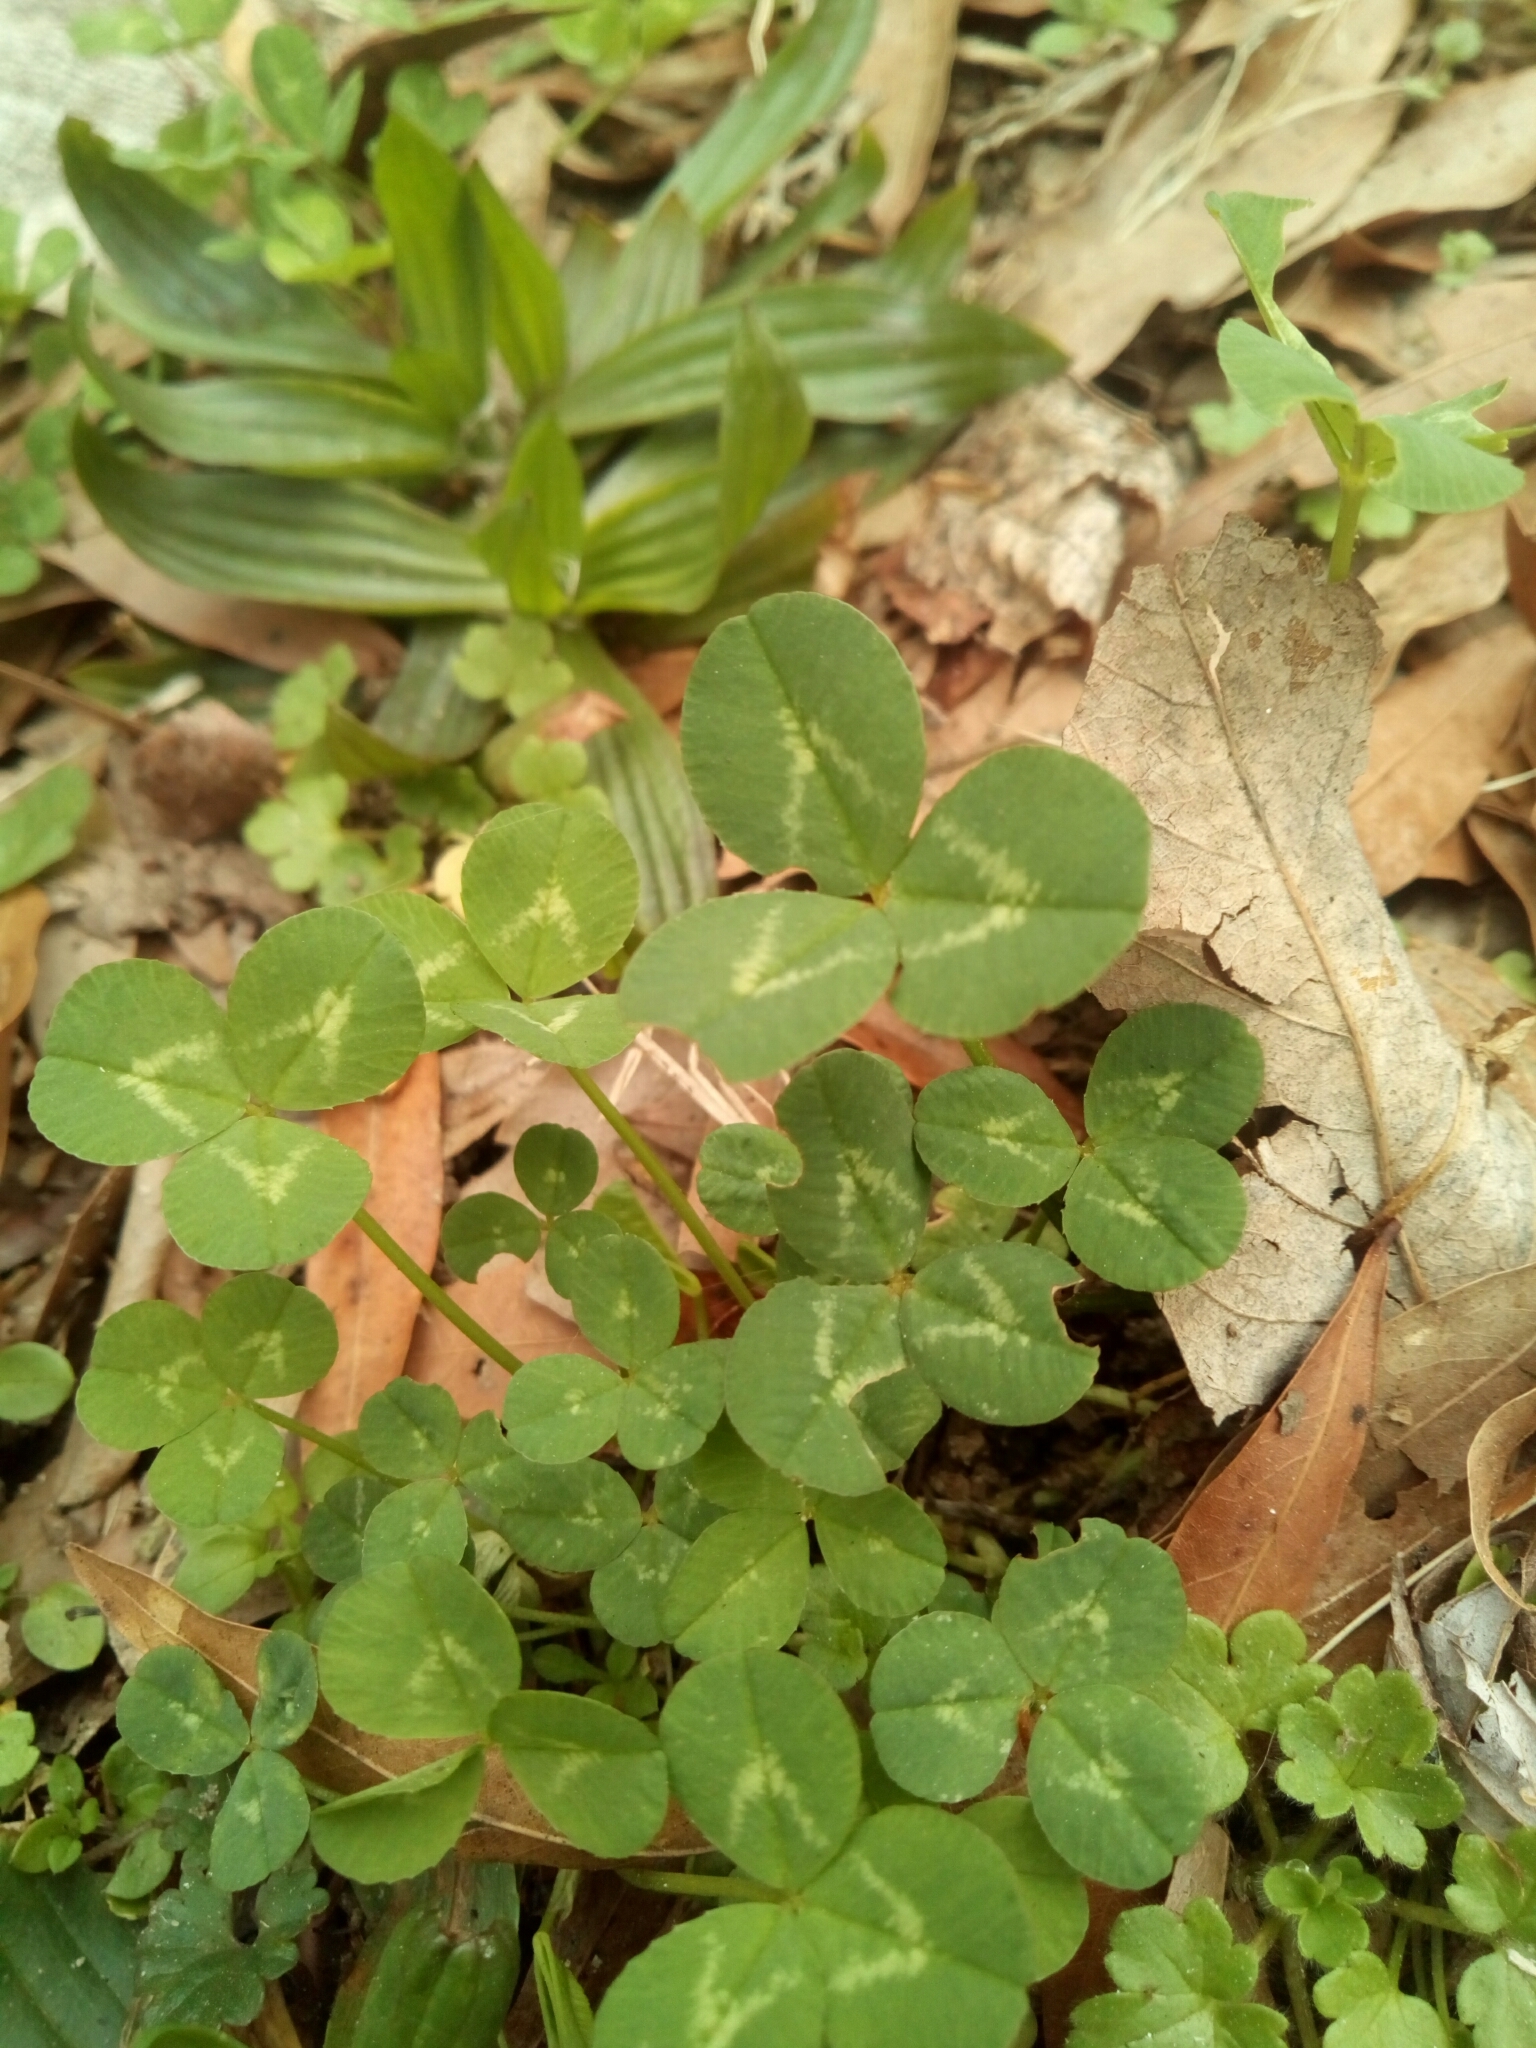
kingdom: Plantae
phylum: Tracheophyta
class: Magnoliopsida
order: Fabales
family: Fabaceae
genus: Trifolium
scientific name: Trifolium repens
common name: White clover
